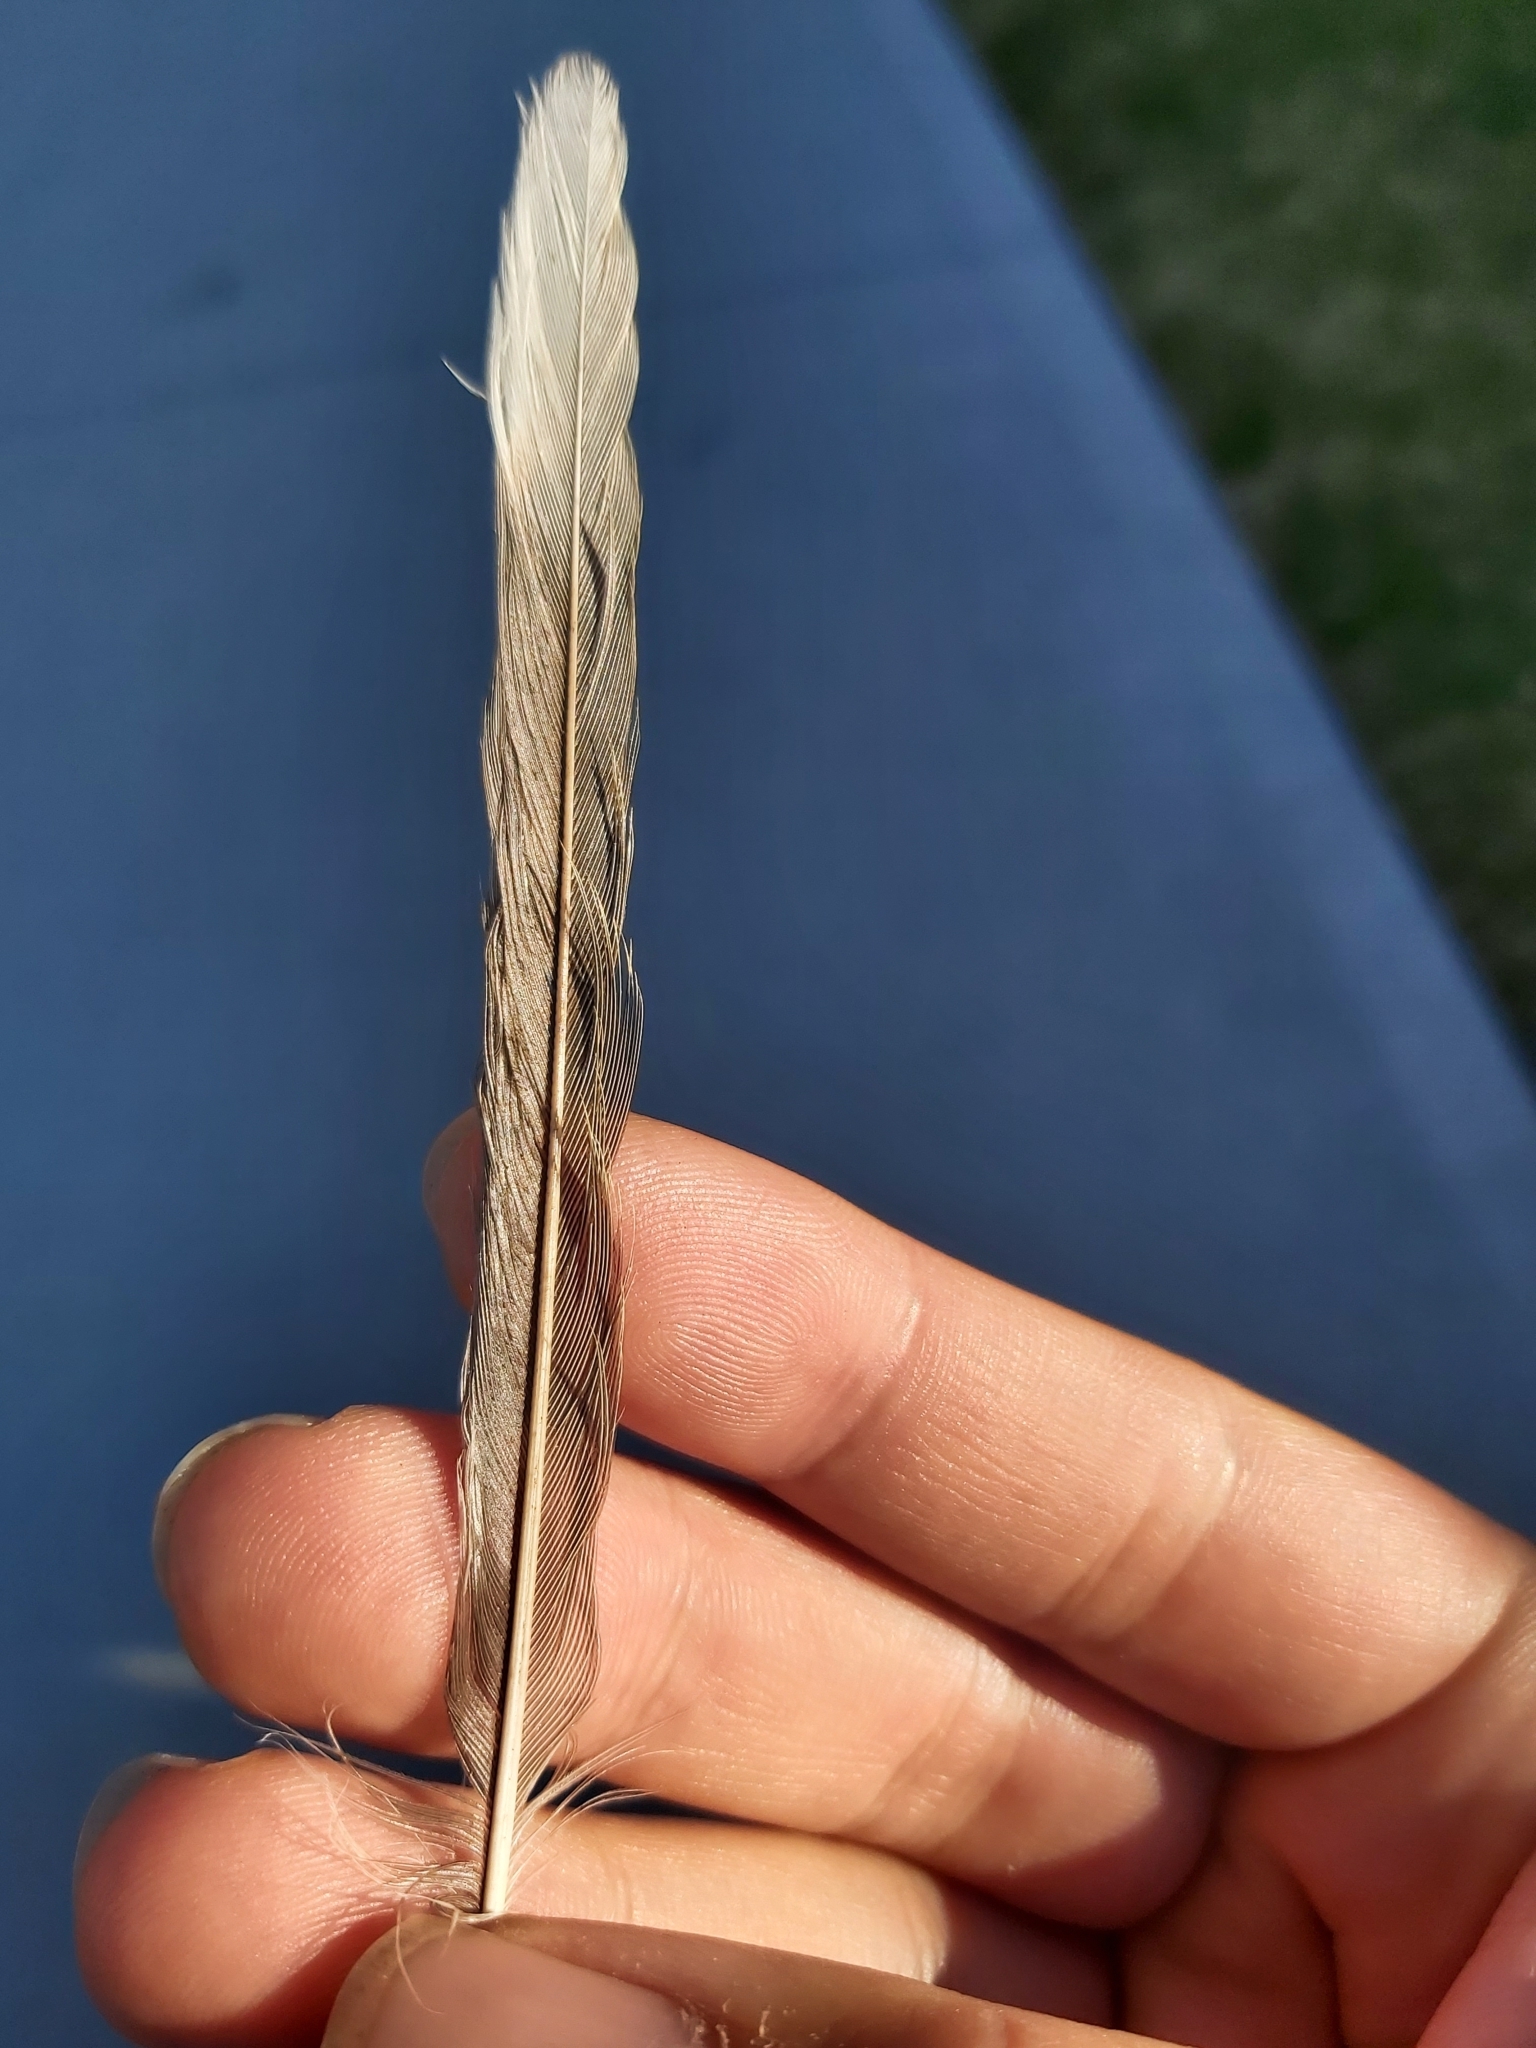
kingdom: Animalia
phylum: Chordata
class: Aves
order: Passeriformes
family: Meliphagidae
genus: Manorina
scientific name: Manorina melanocephala
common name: Noisy miner
